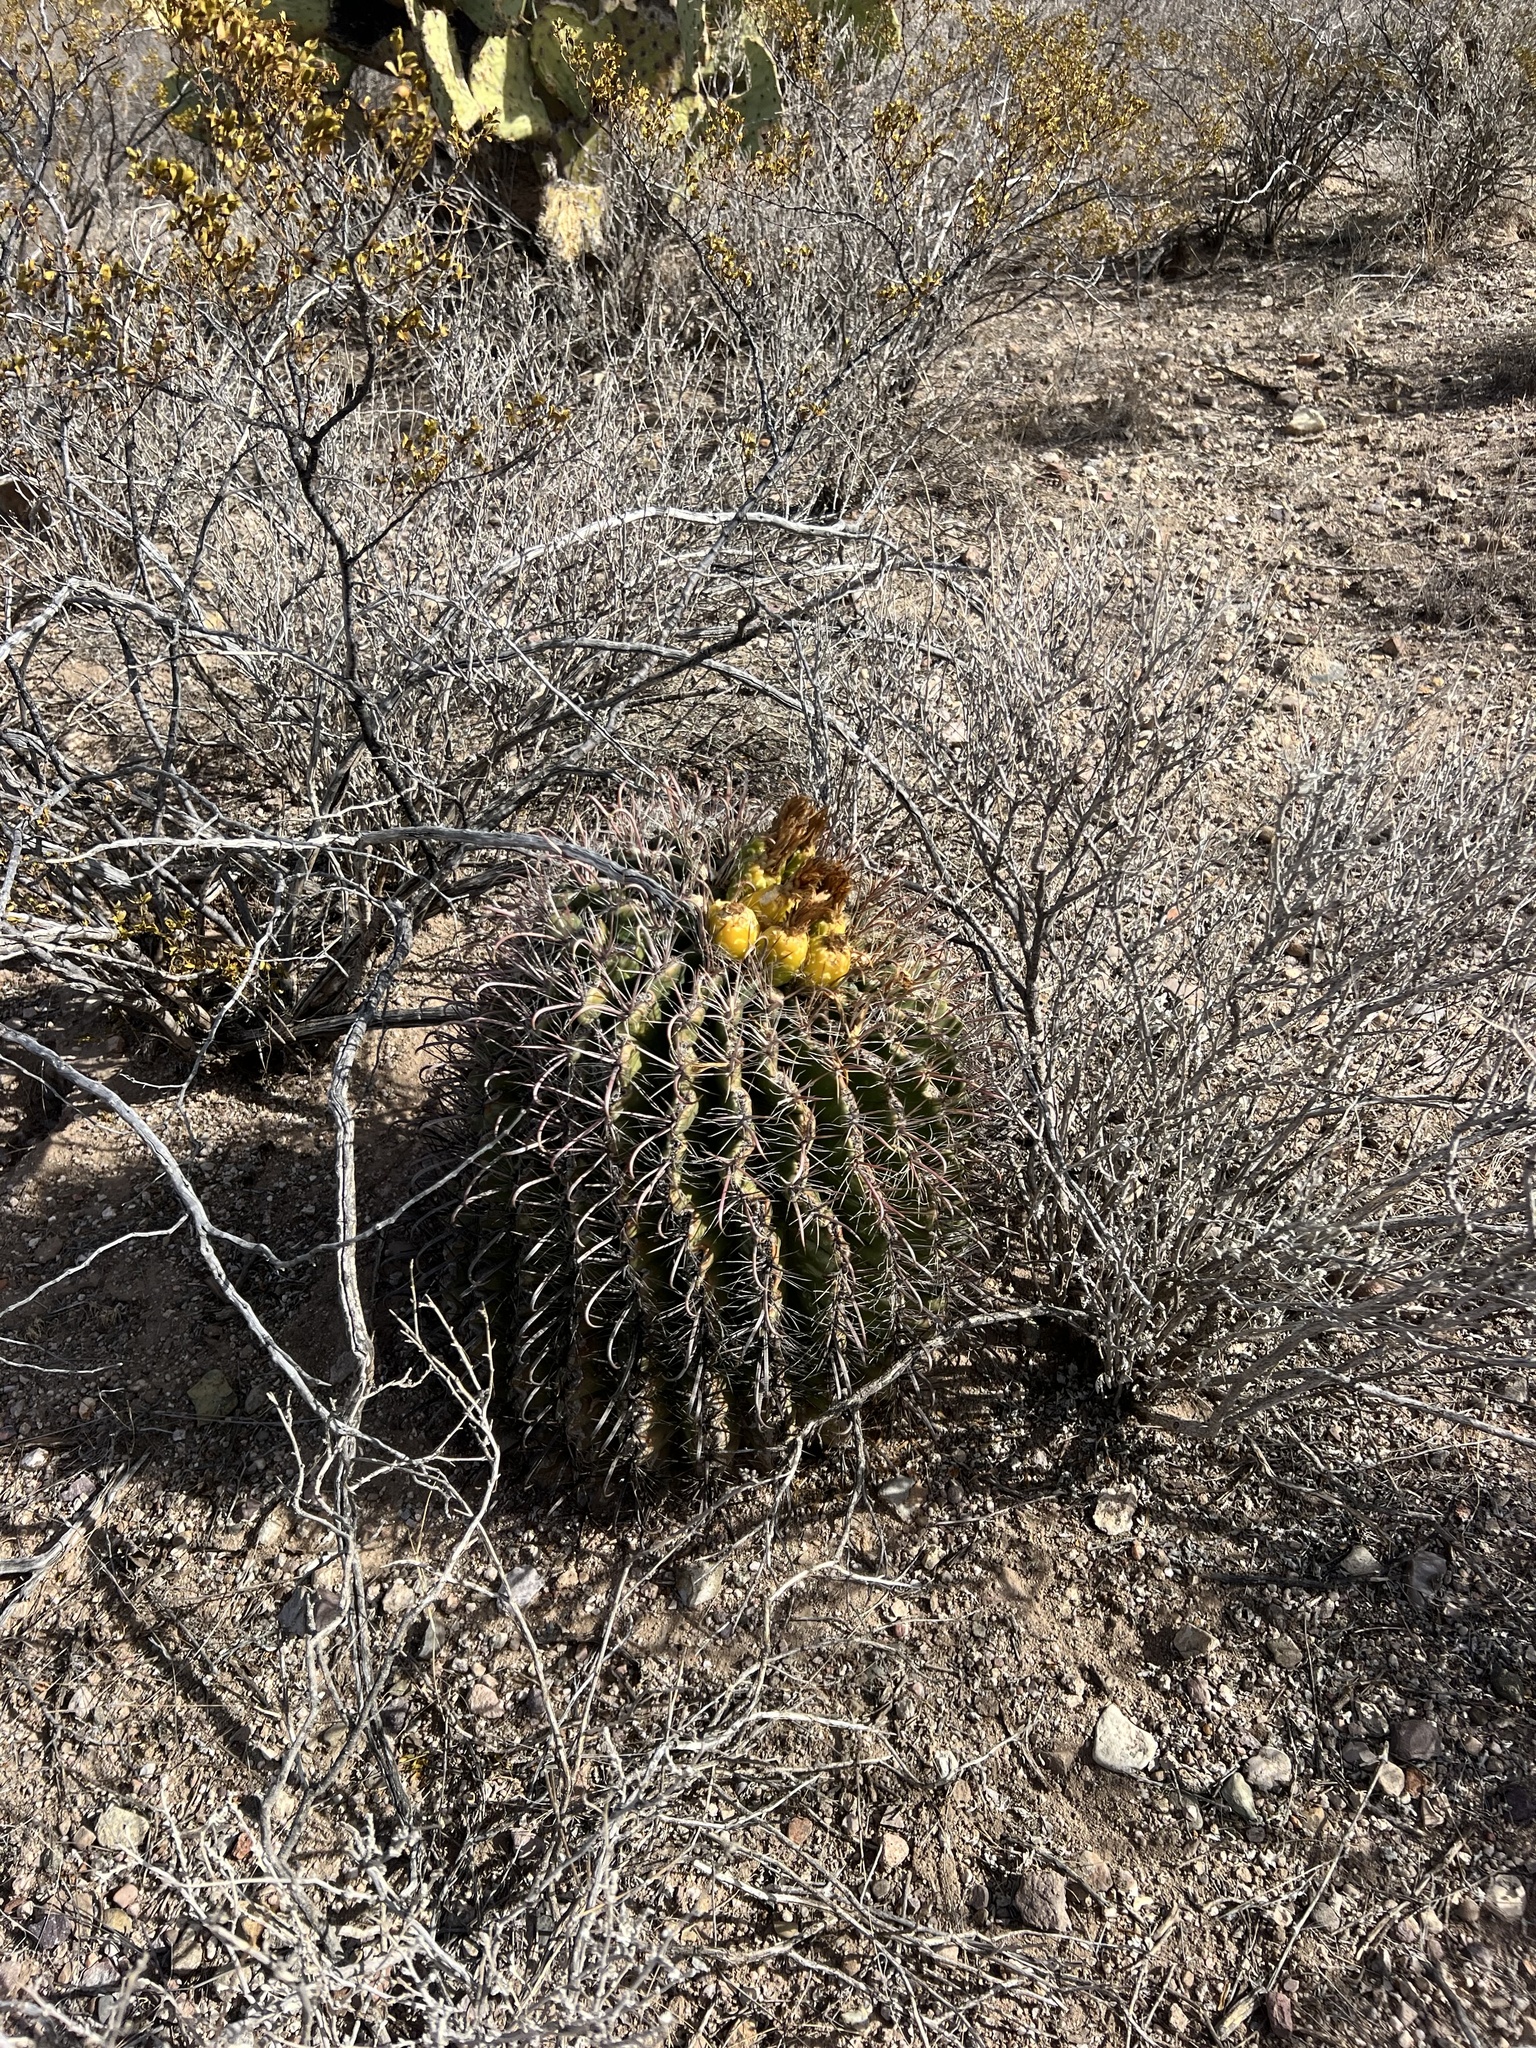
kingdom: Plantae
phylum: Tracheophyta
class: Magnoliopsida
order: Caryophyllales
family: Cactaceae
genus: Ferocactus
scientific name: Ferocactus wislizeni
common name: Candy barrel cactus
